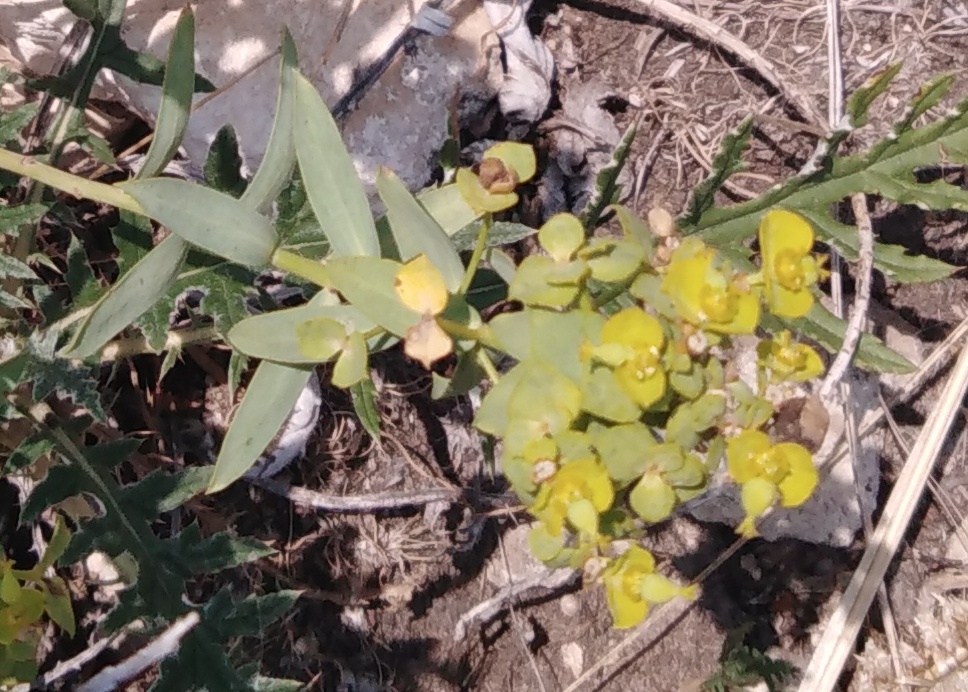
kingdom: Plantae
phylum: Tracheophyta
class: Magnoliopsida
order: Malpighiales
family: Euphorbiaceae
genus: Euphorbia
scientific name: Euphorbia seguieriana
